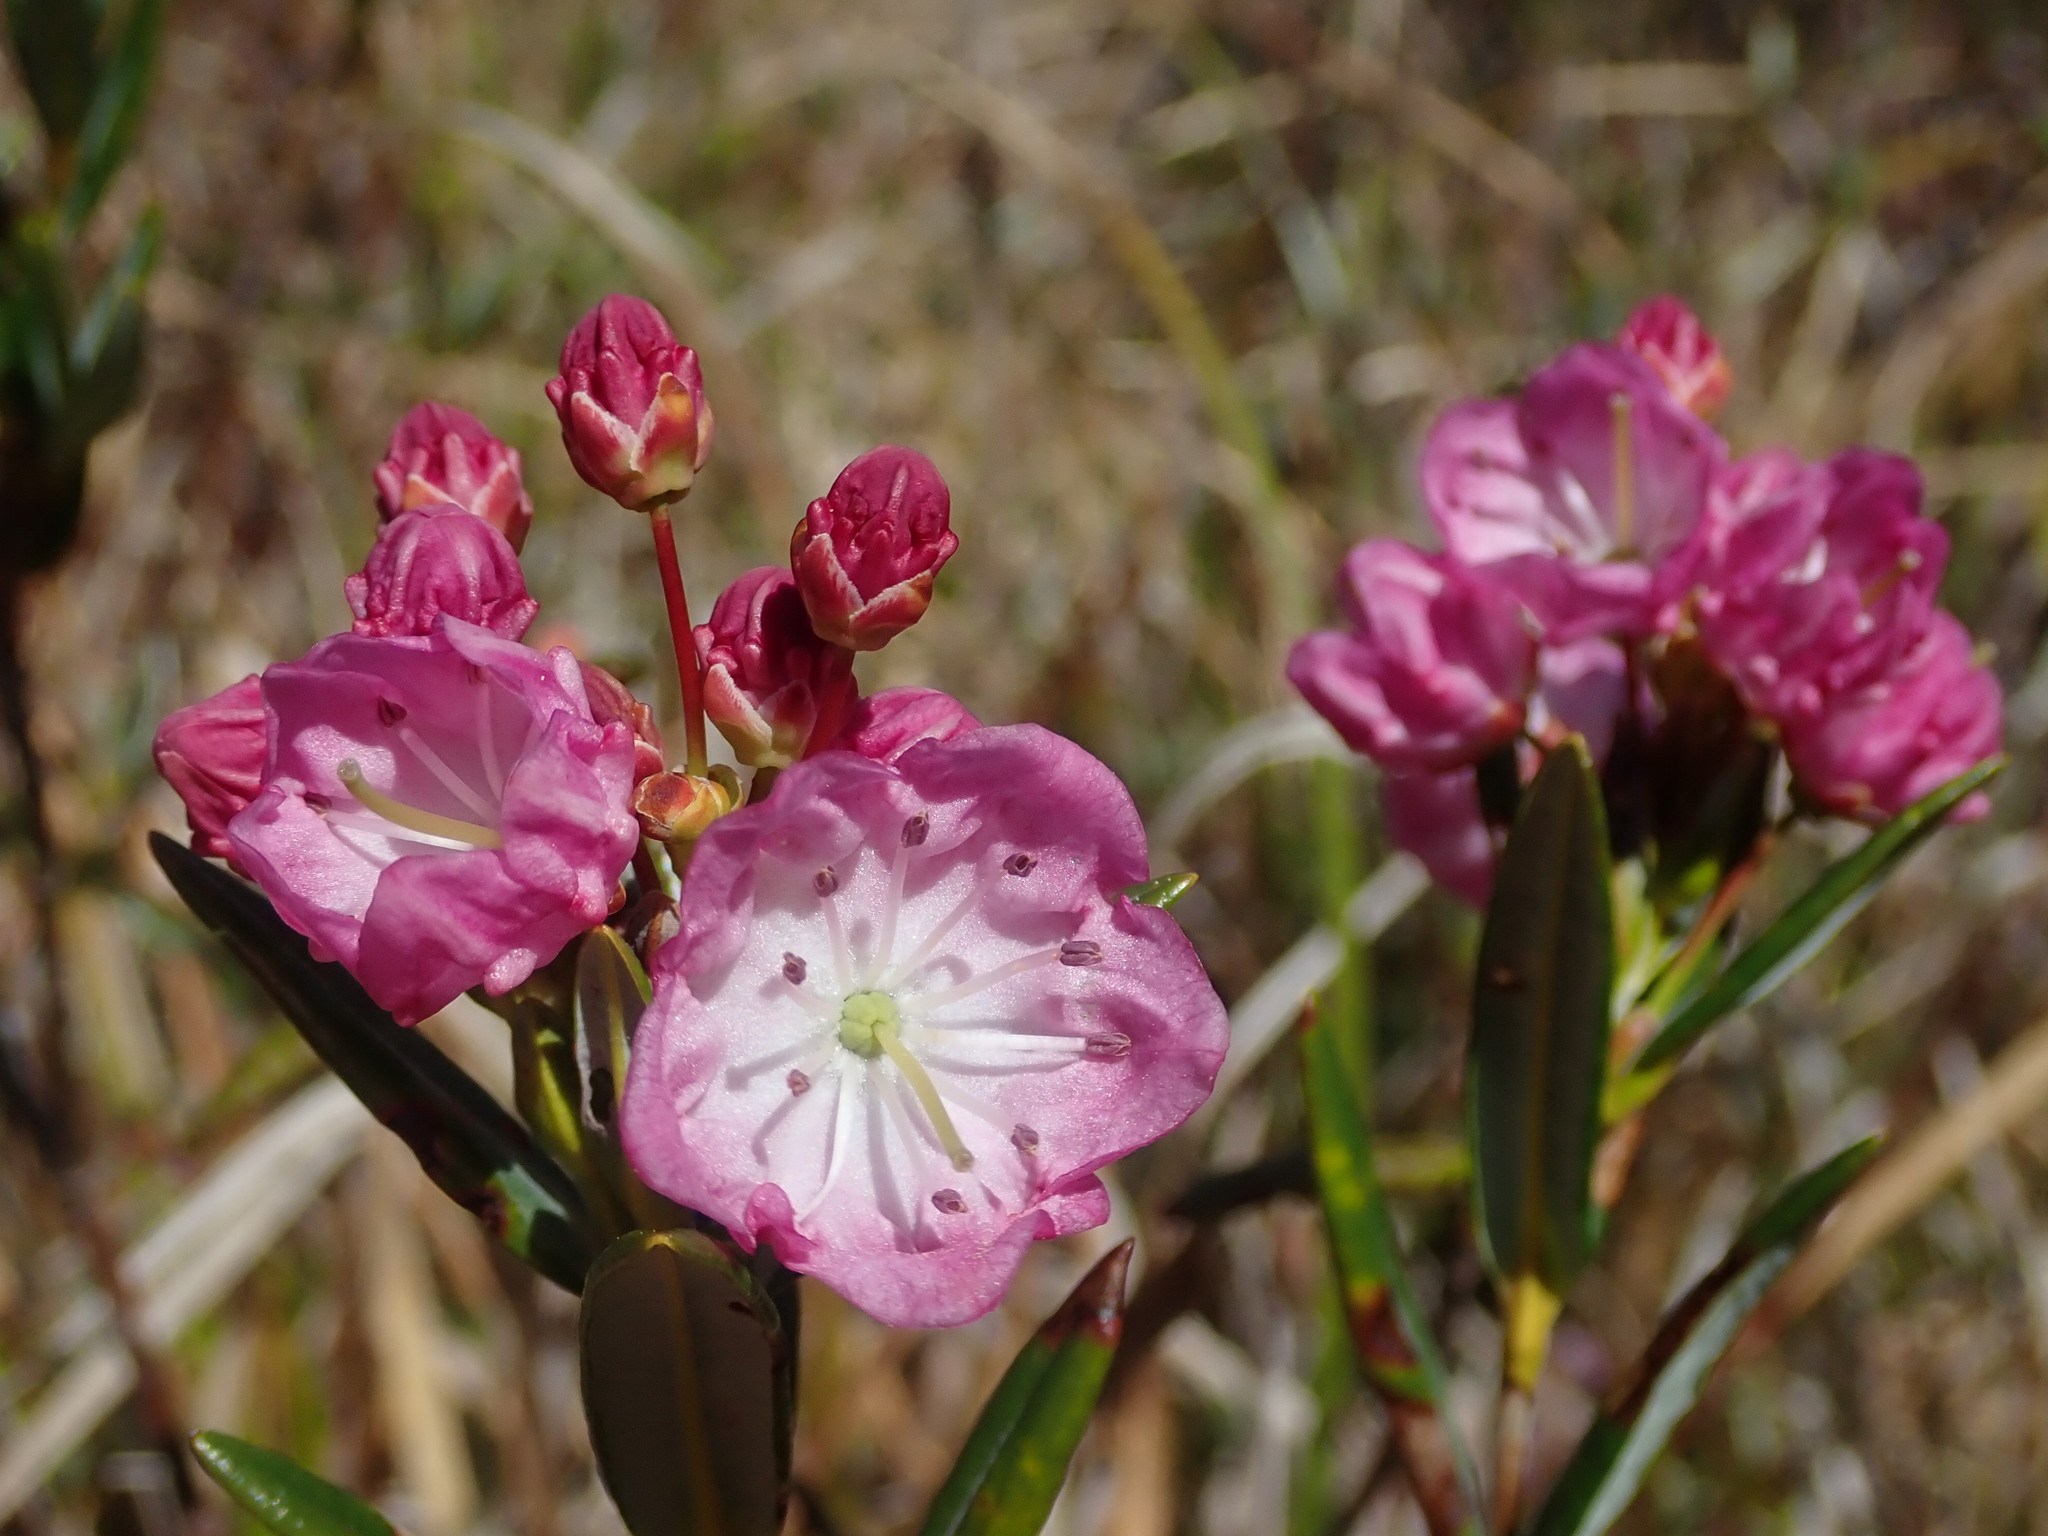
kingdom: Plantae
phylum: Tracheophyta
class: Magnoliopsida
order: Ericales
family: Ericaceae
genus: Kalmia
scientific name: Kalmia microphylla
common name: Alpine bog laurel
